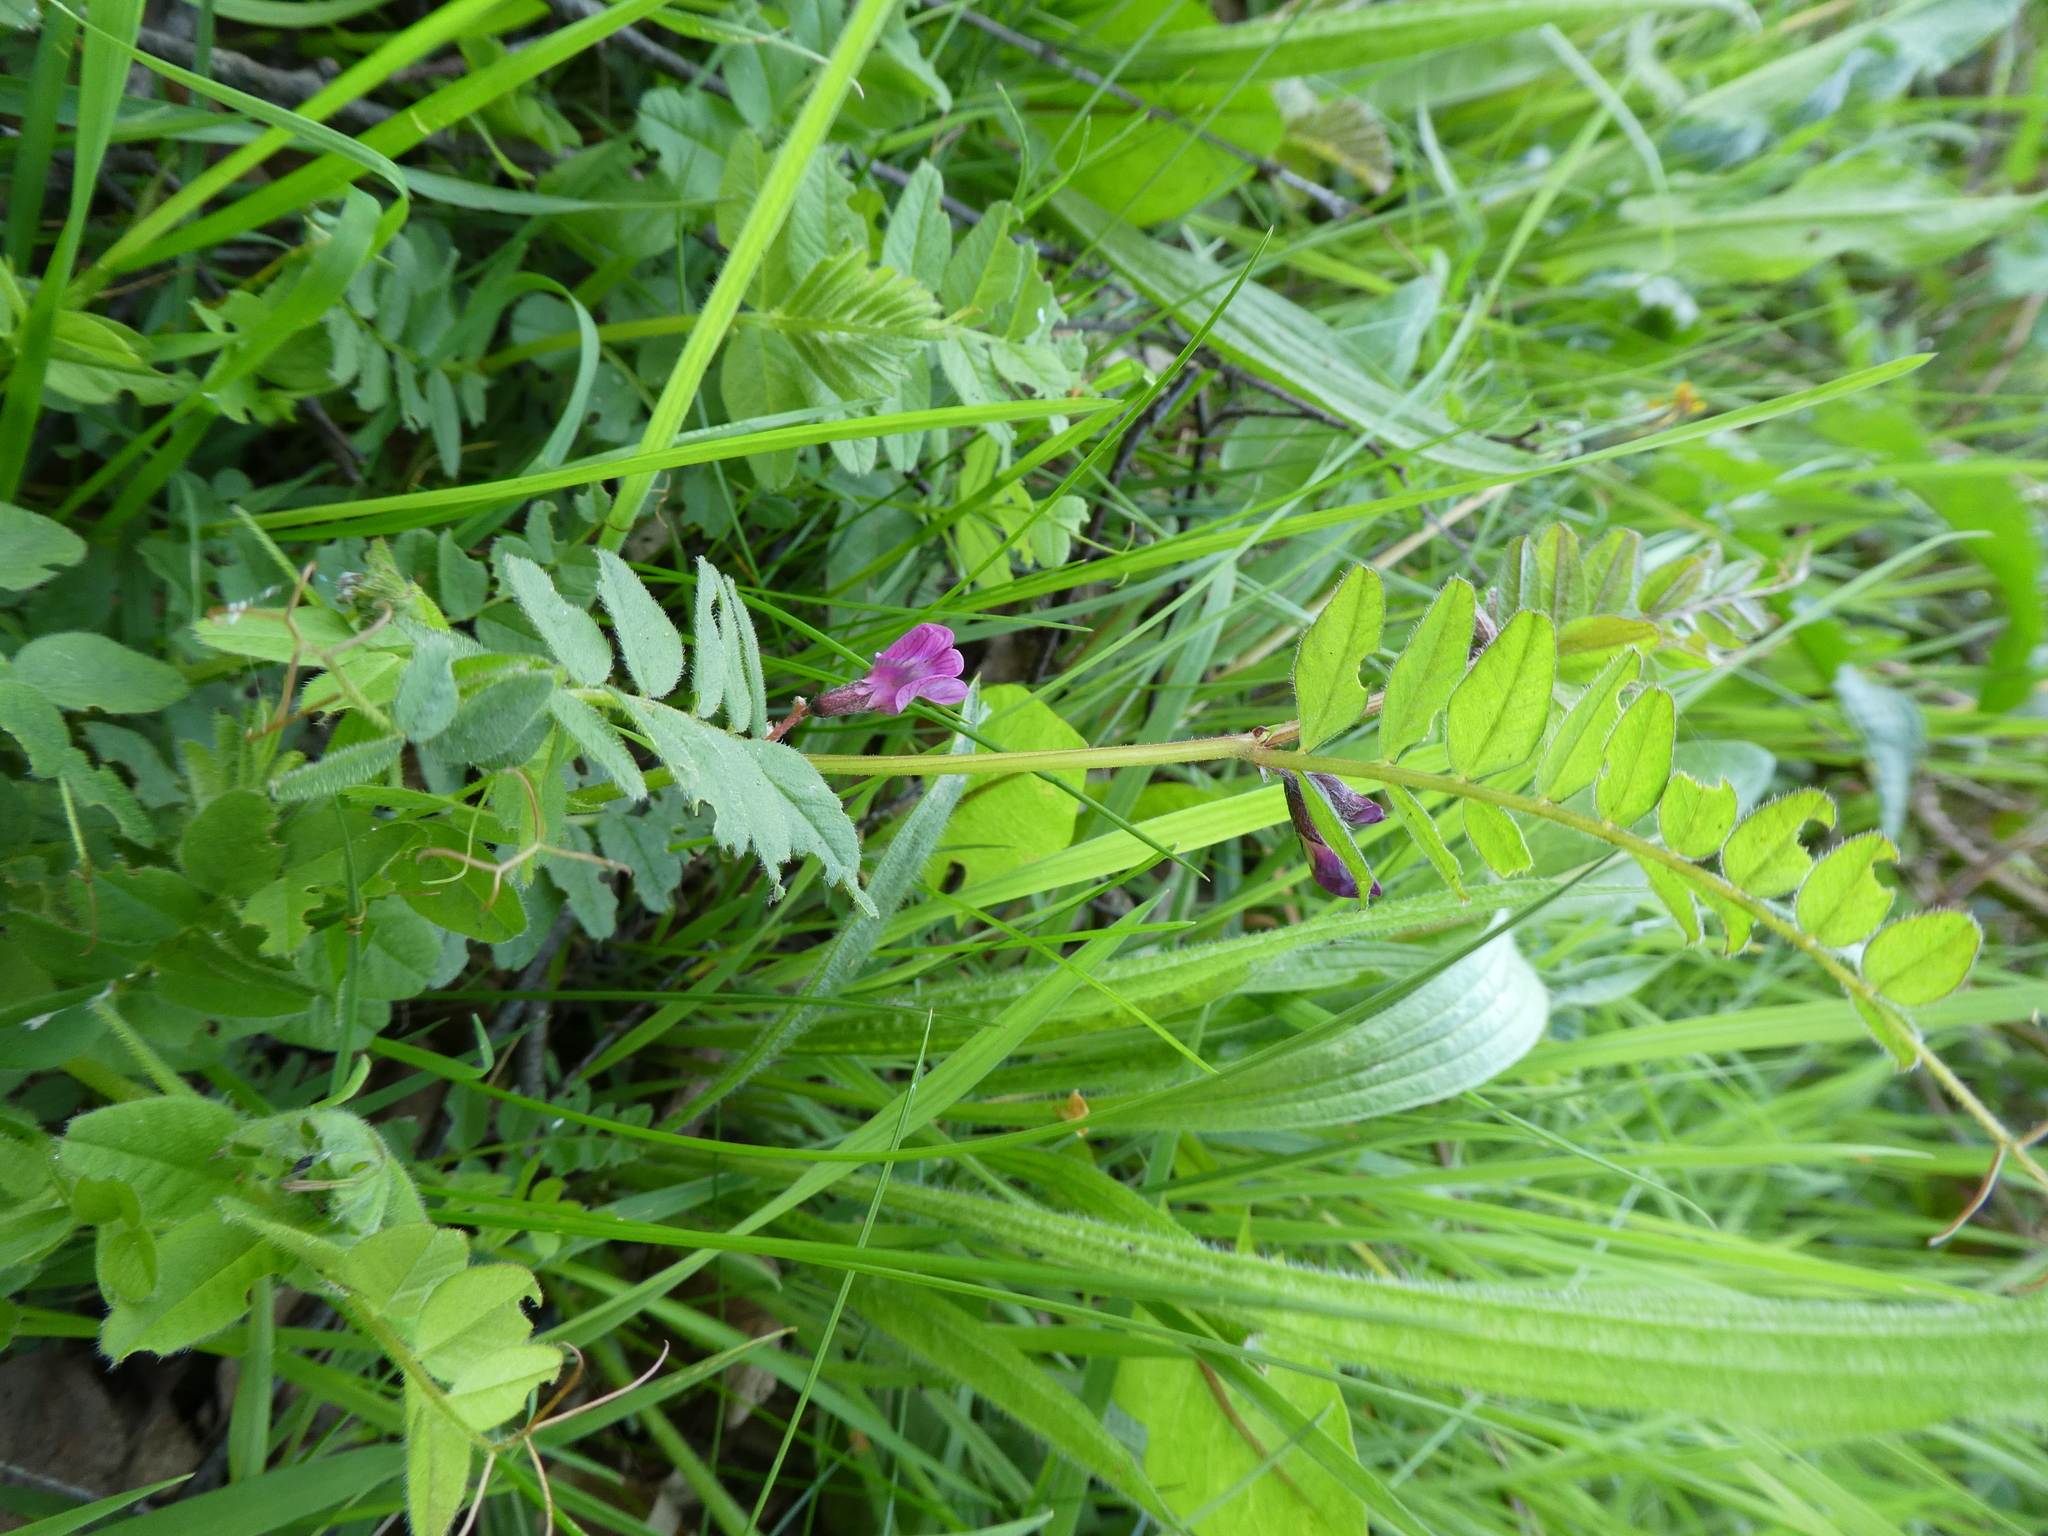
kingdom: Plantae
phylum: Tracheophyta
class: Magnoliopsida
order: Fabales
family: Fabaceae
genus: Vicia
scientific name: Vicia sepium
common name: Bush vetch
